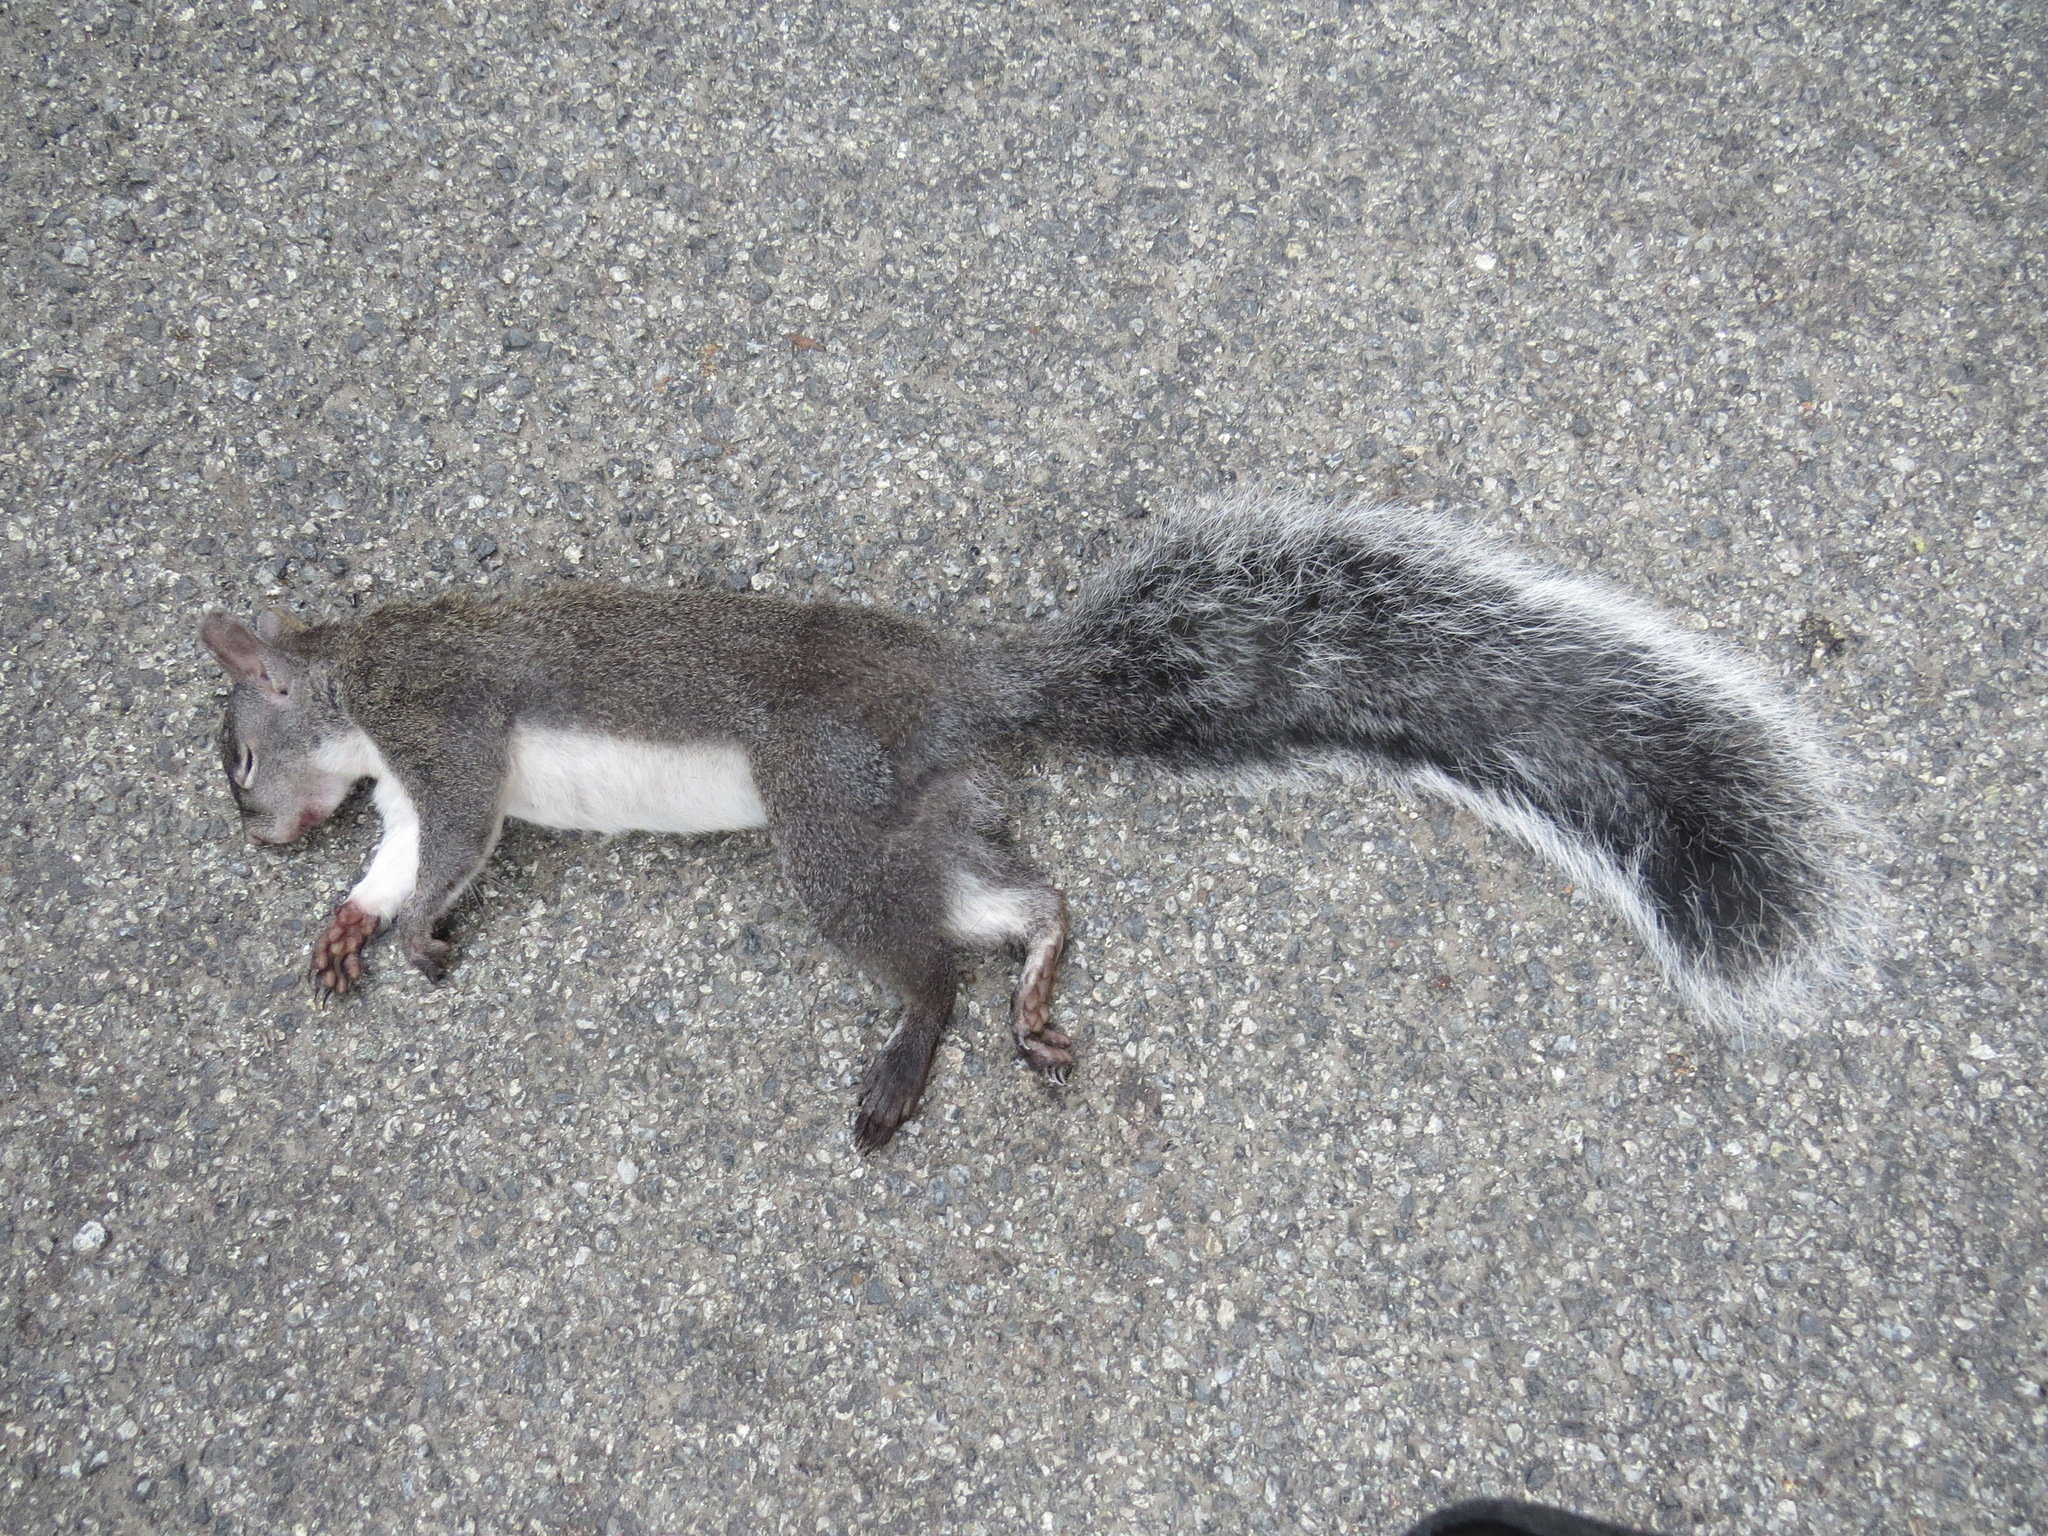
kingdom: Animalia
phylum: Chordata
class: Mammalia
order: Rodentia
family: Sciuridae
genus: Sciurus
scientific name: Sciurus griseus
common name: Western gray squirrel
